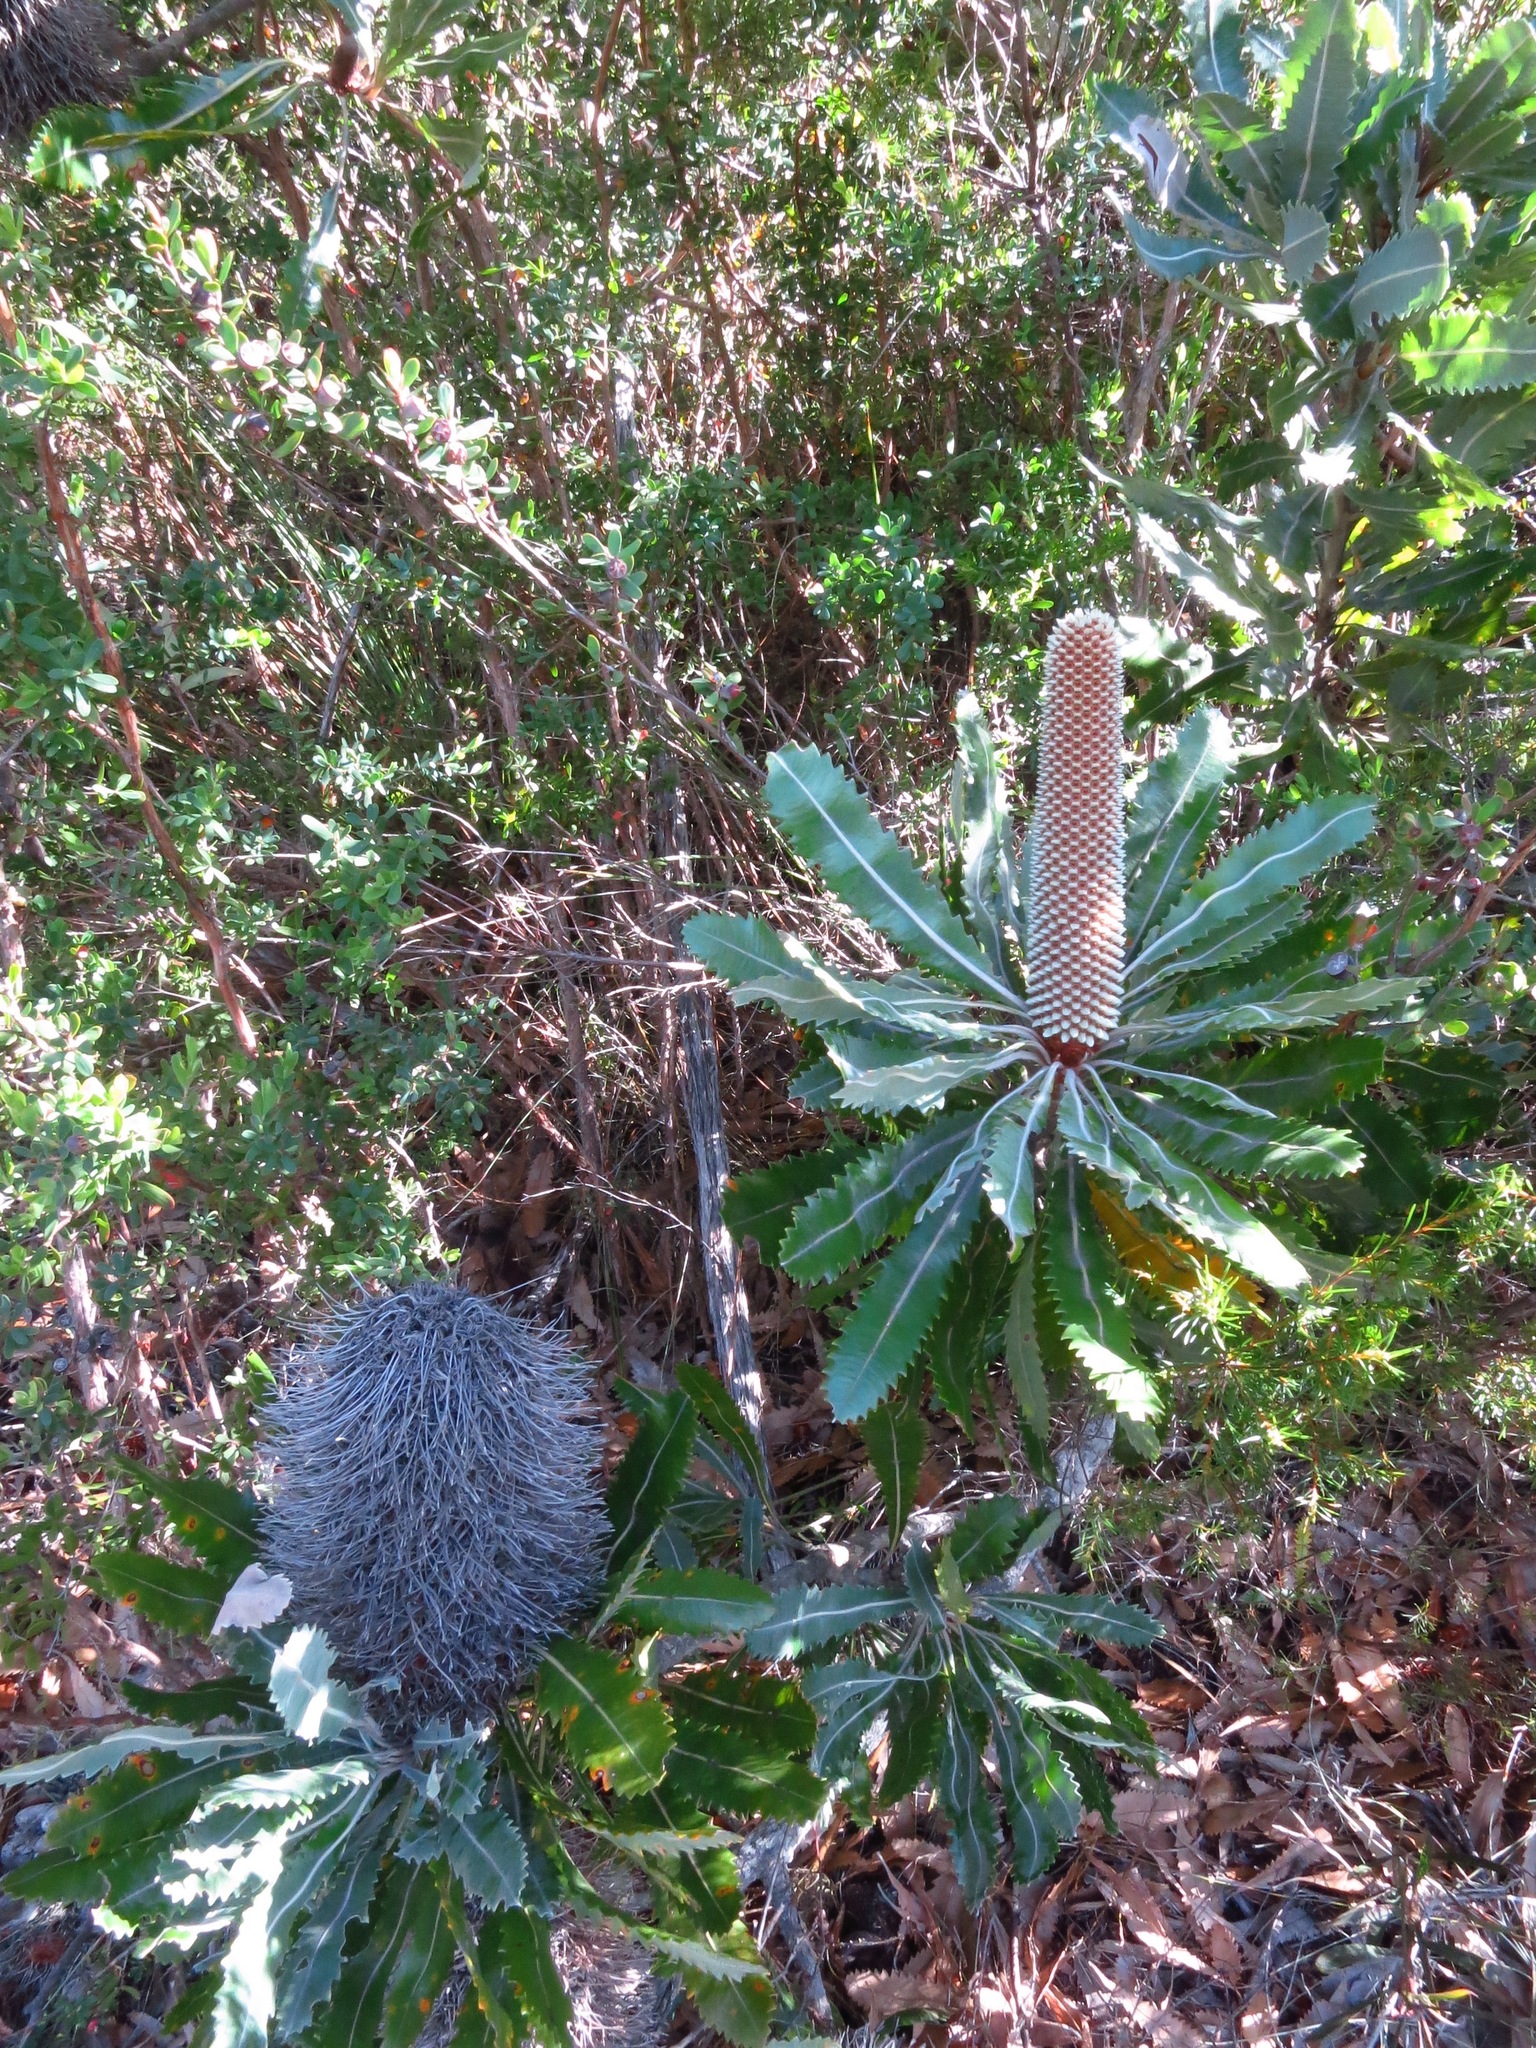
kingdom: Plantae
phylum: Tracheophyta
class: Magnoliopsida
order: Proteales
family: Proteaceae
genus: Banksia
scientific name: Banksia serrata
